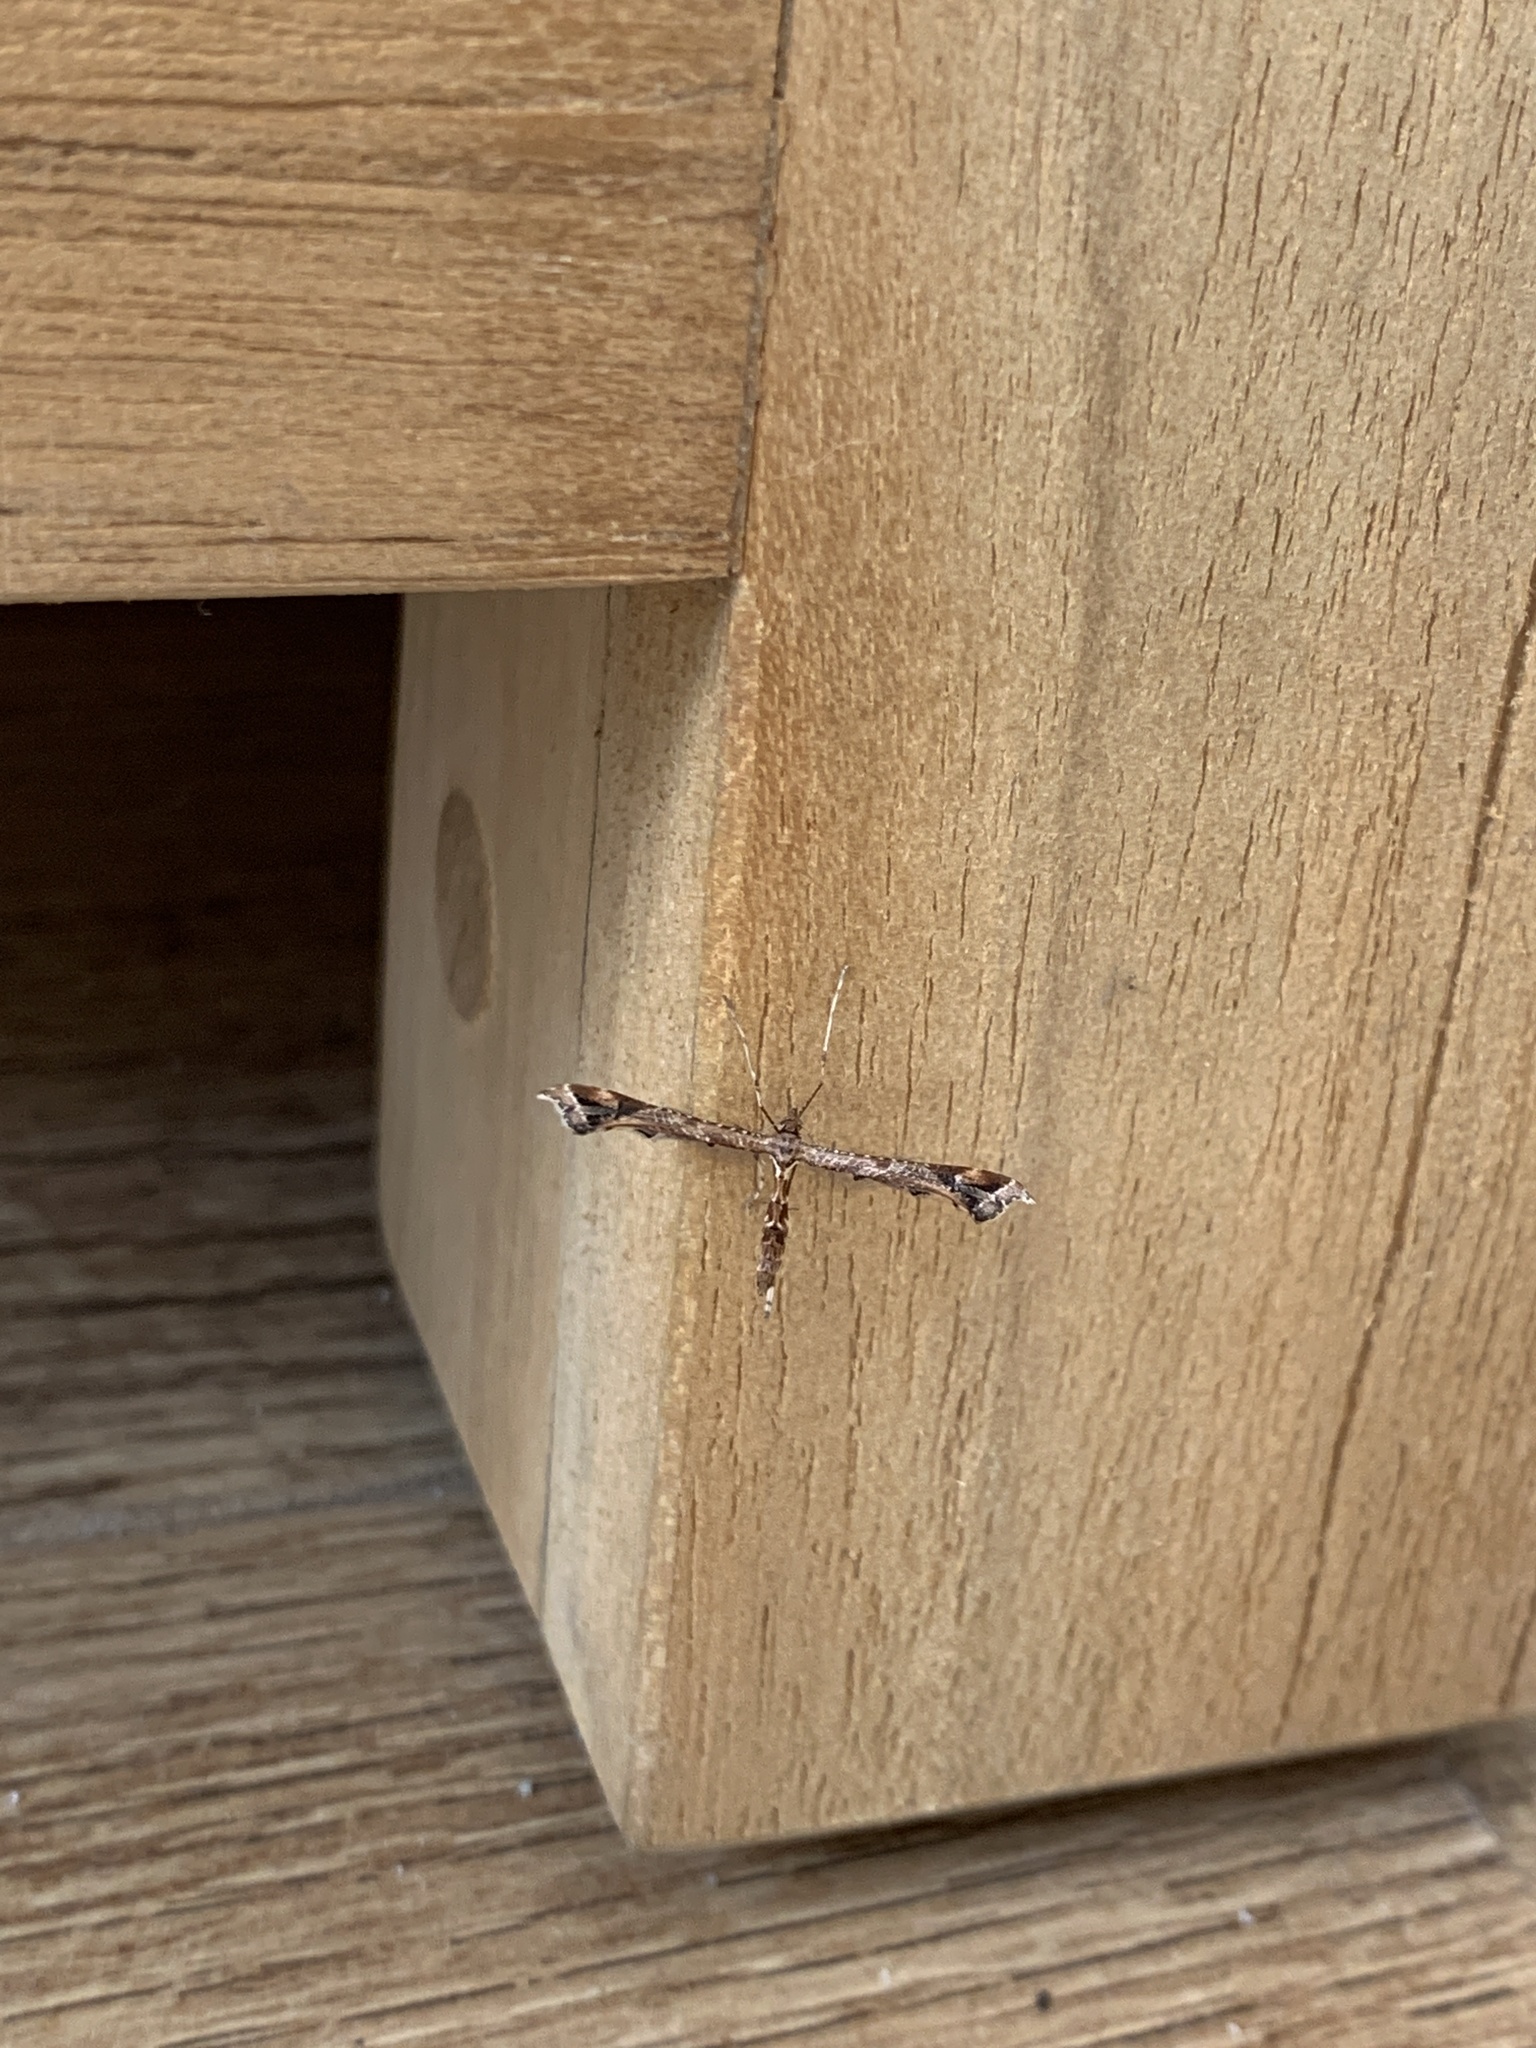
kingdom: Animalia
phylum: Arthropoda
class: Insecta
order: Lepidoptera
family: Pterophoridae
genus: Amblyptilia
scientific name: Amblyptilia acanthadactyla
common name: Beautiful plume
